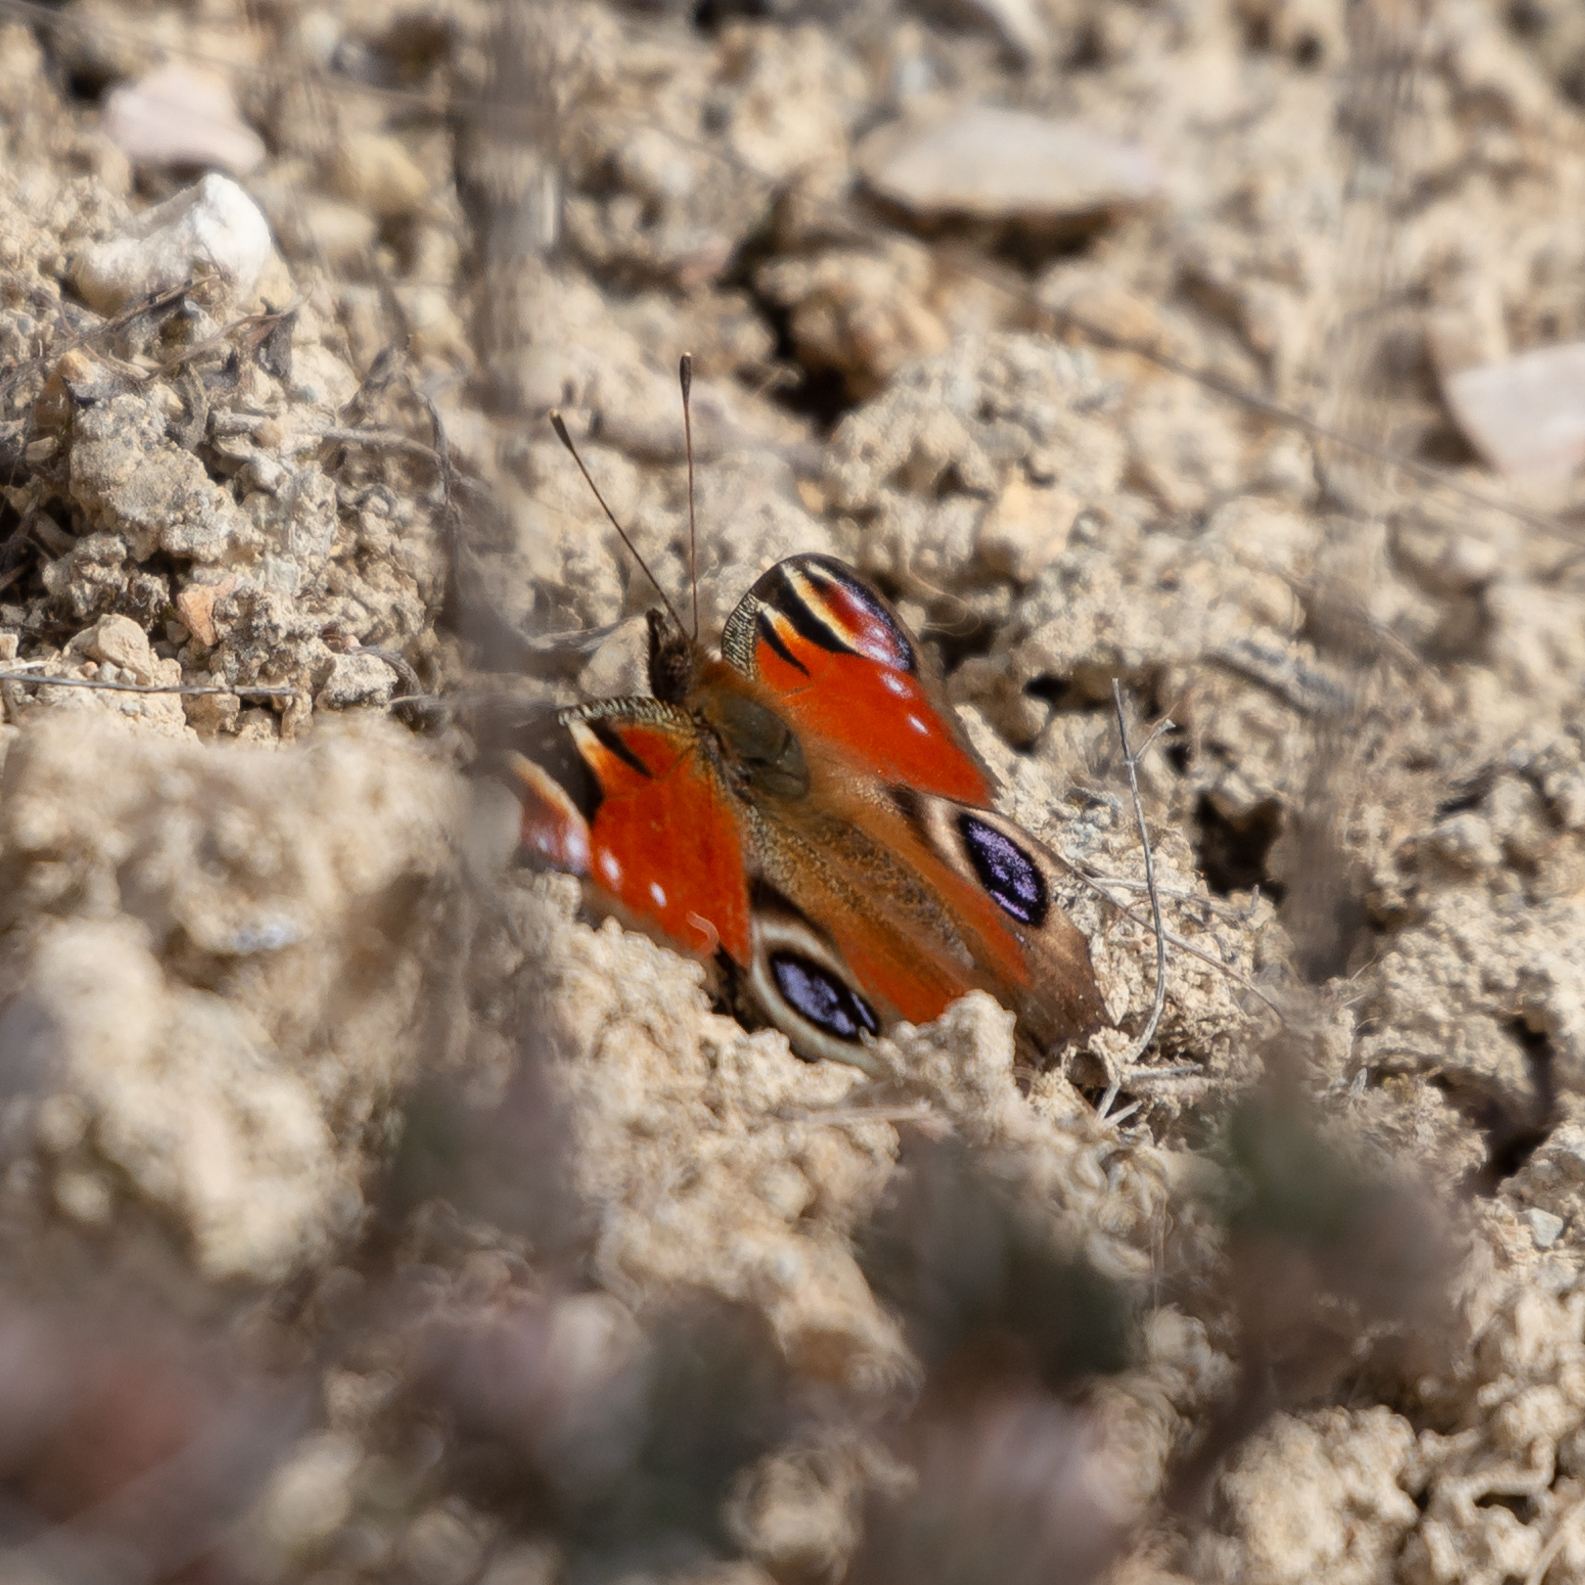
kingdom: Animalia
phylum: Arthropoda
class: Insecta
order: Lepidoptera
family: Nymphalidae
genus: Aglais
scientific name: Aglais io
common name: Peacock
